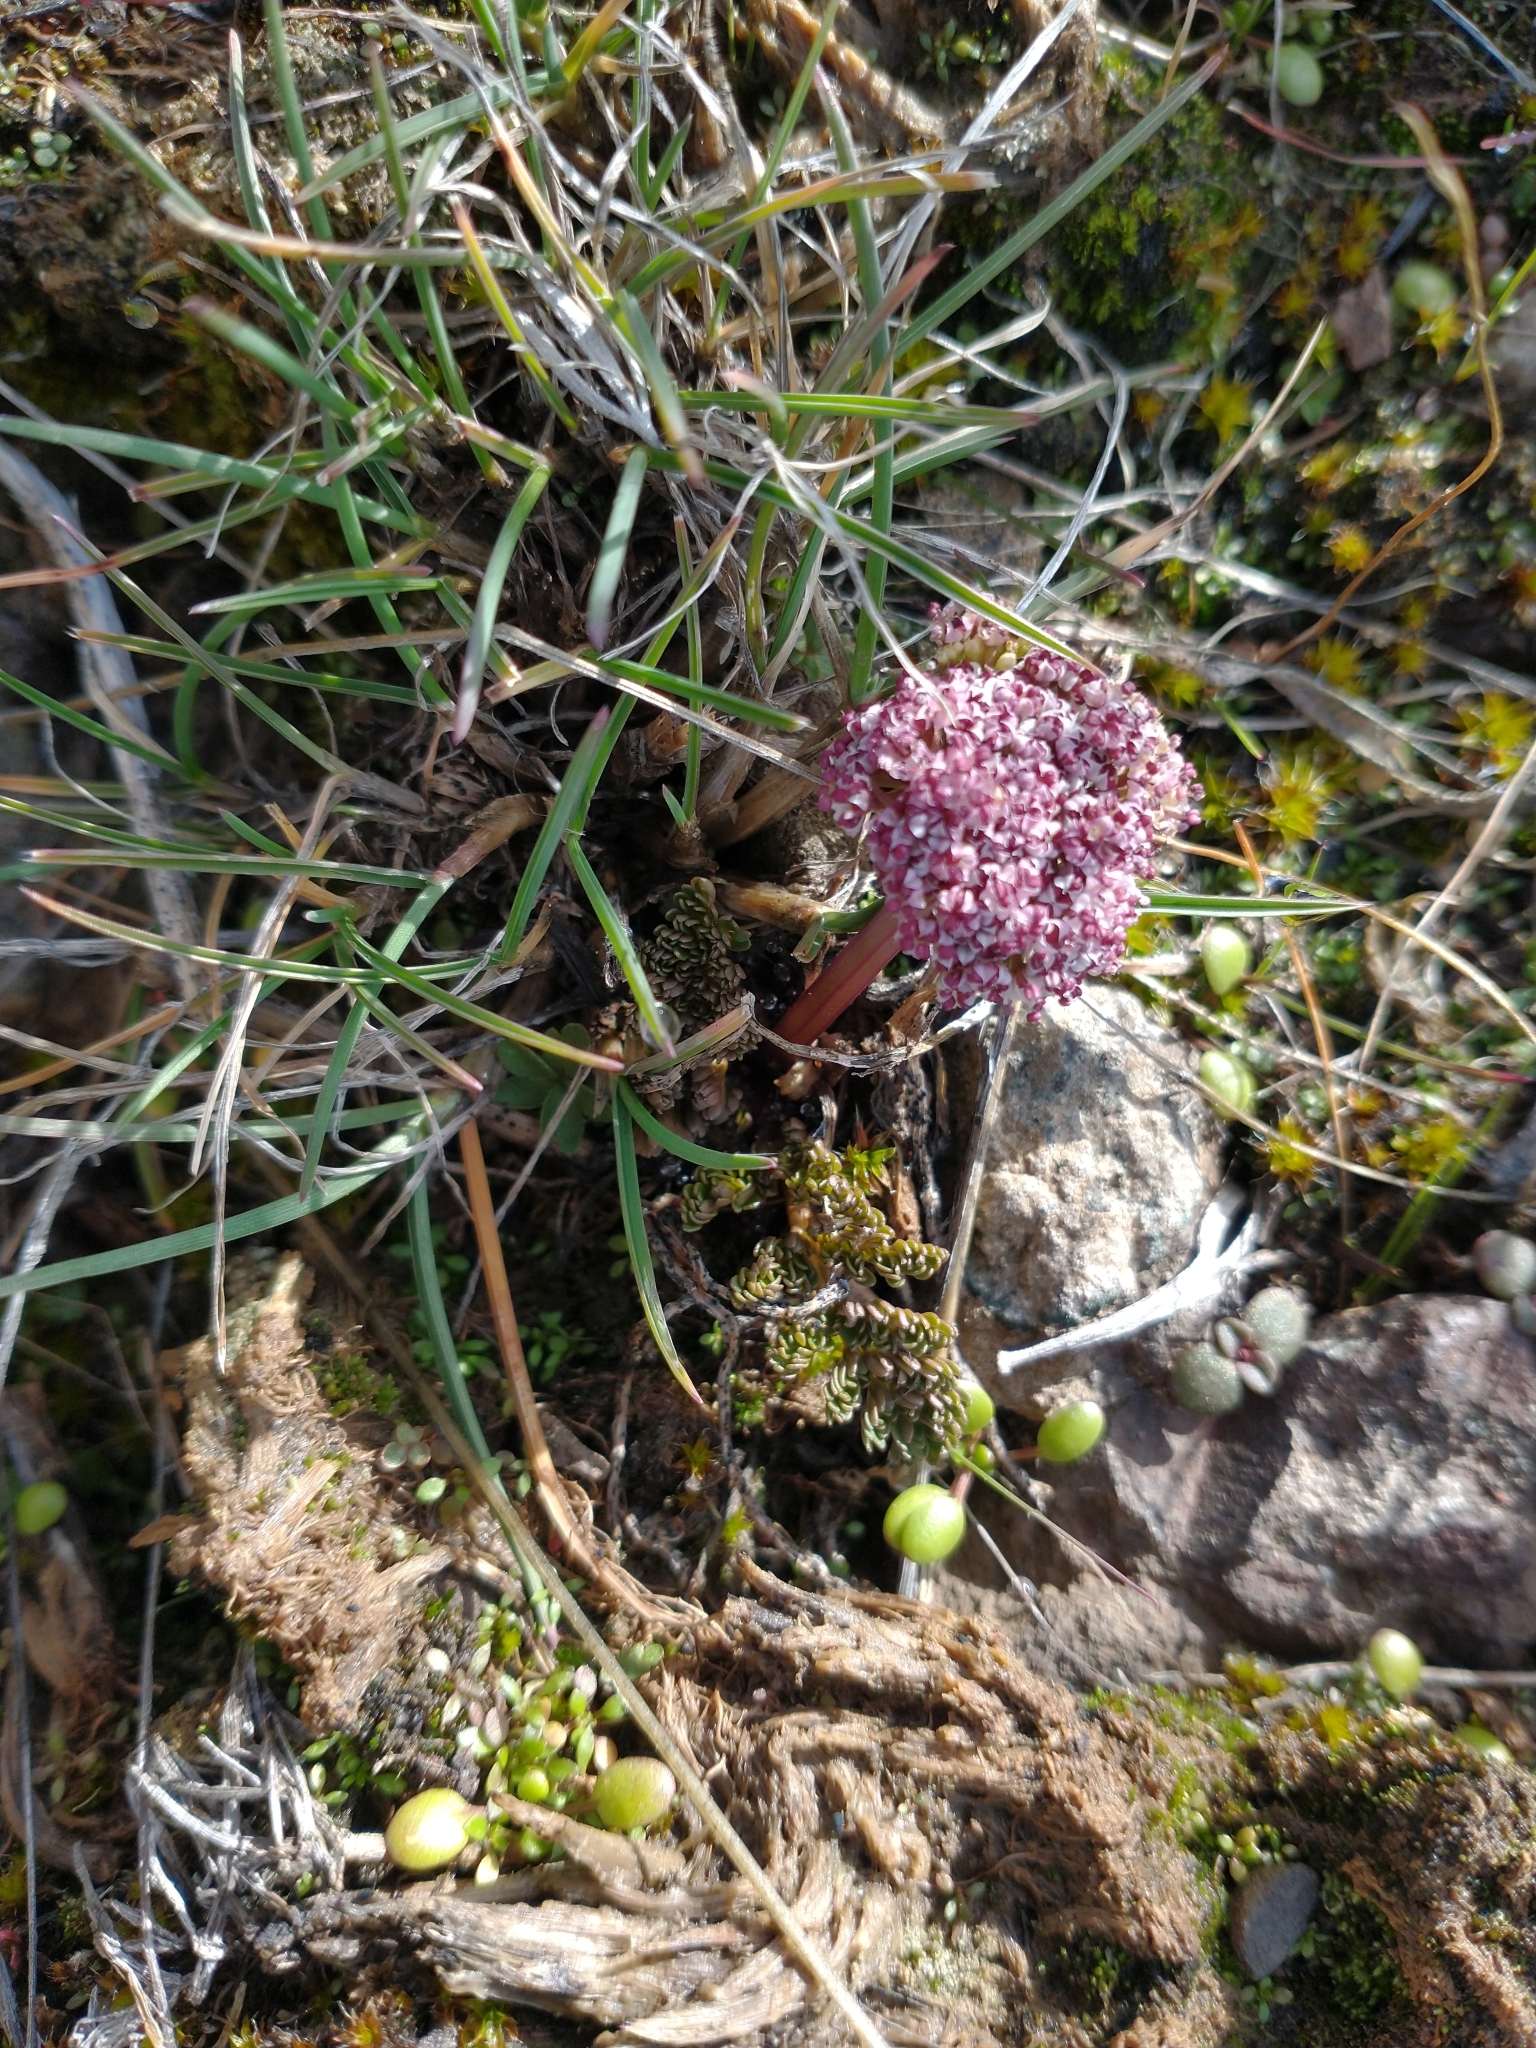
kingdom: Plantae
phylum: Tracheophyta
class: Magnoliopsida
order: Apiales
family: Apiaceae
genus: Lomatium
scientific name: Lomatium minus
